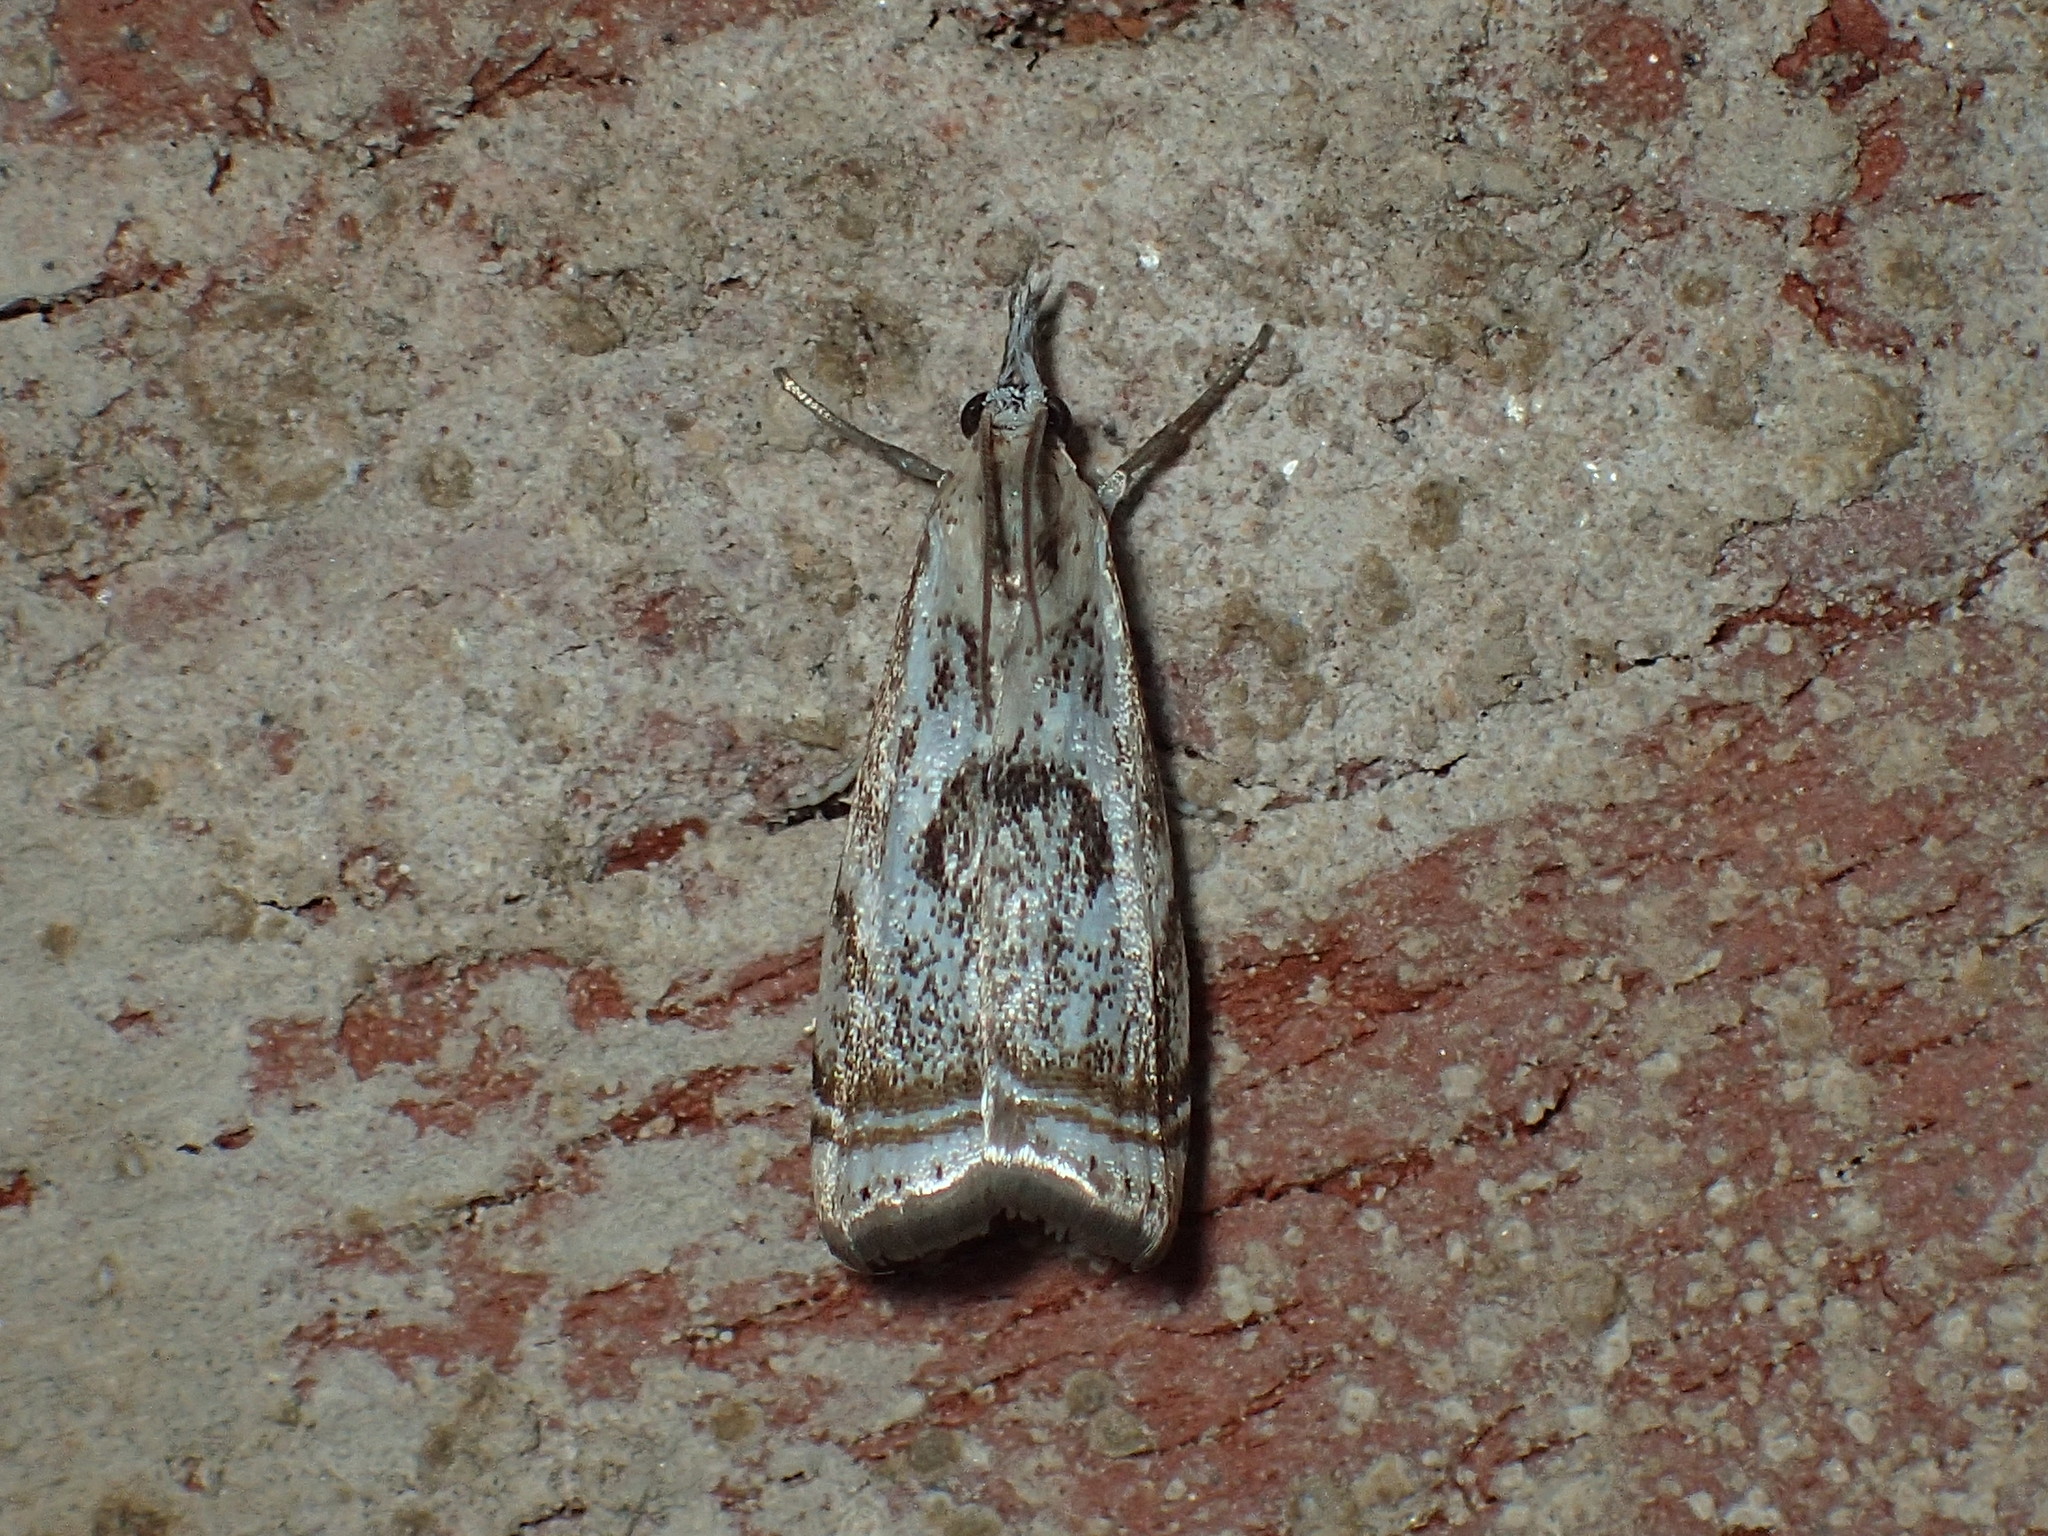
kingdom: Animalia
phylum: Arthropoda
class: Insecta
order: Lepidoptera
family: Crambidae
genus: Microcrambus
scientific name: Microcrambus elegans
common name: Elegant grass-veneer
